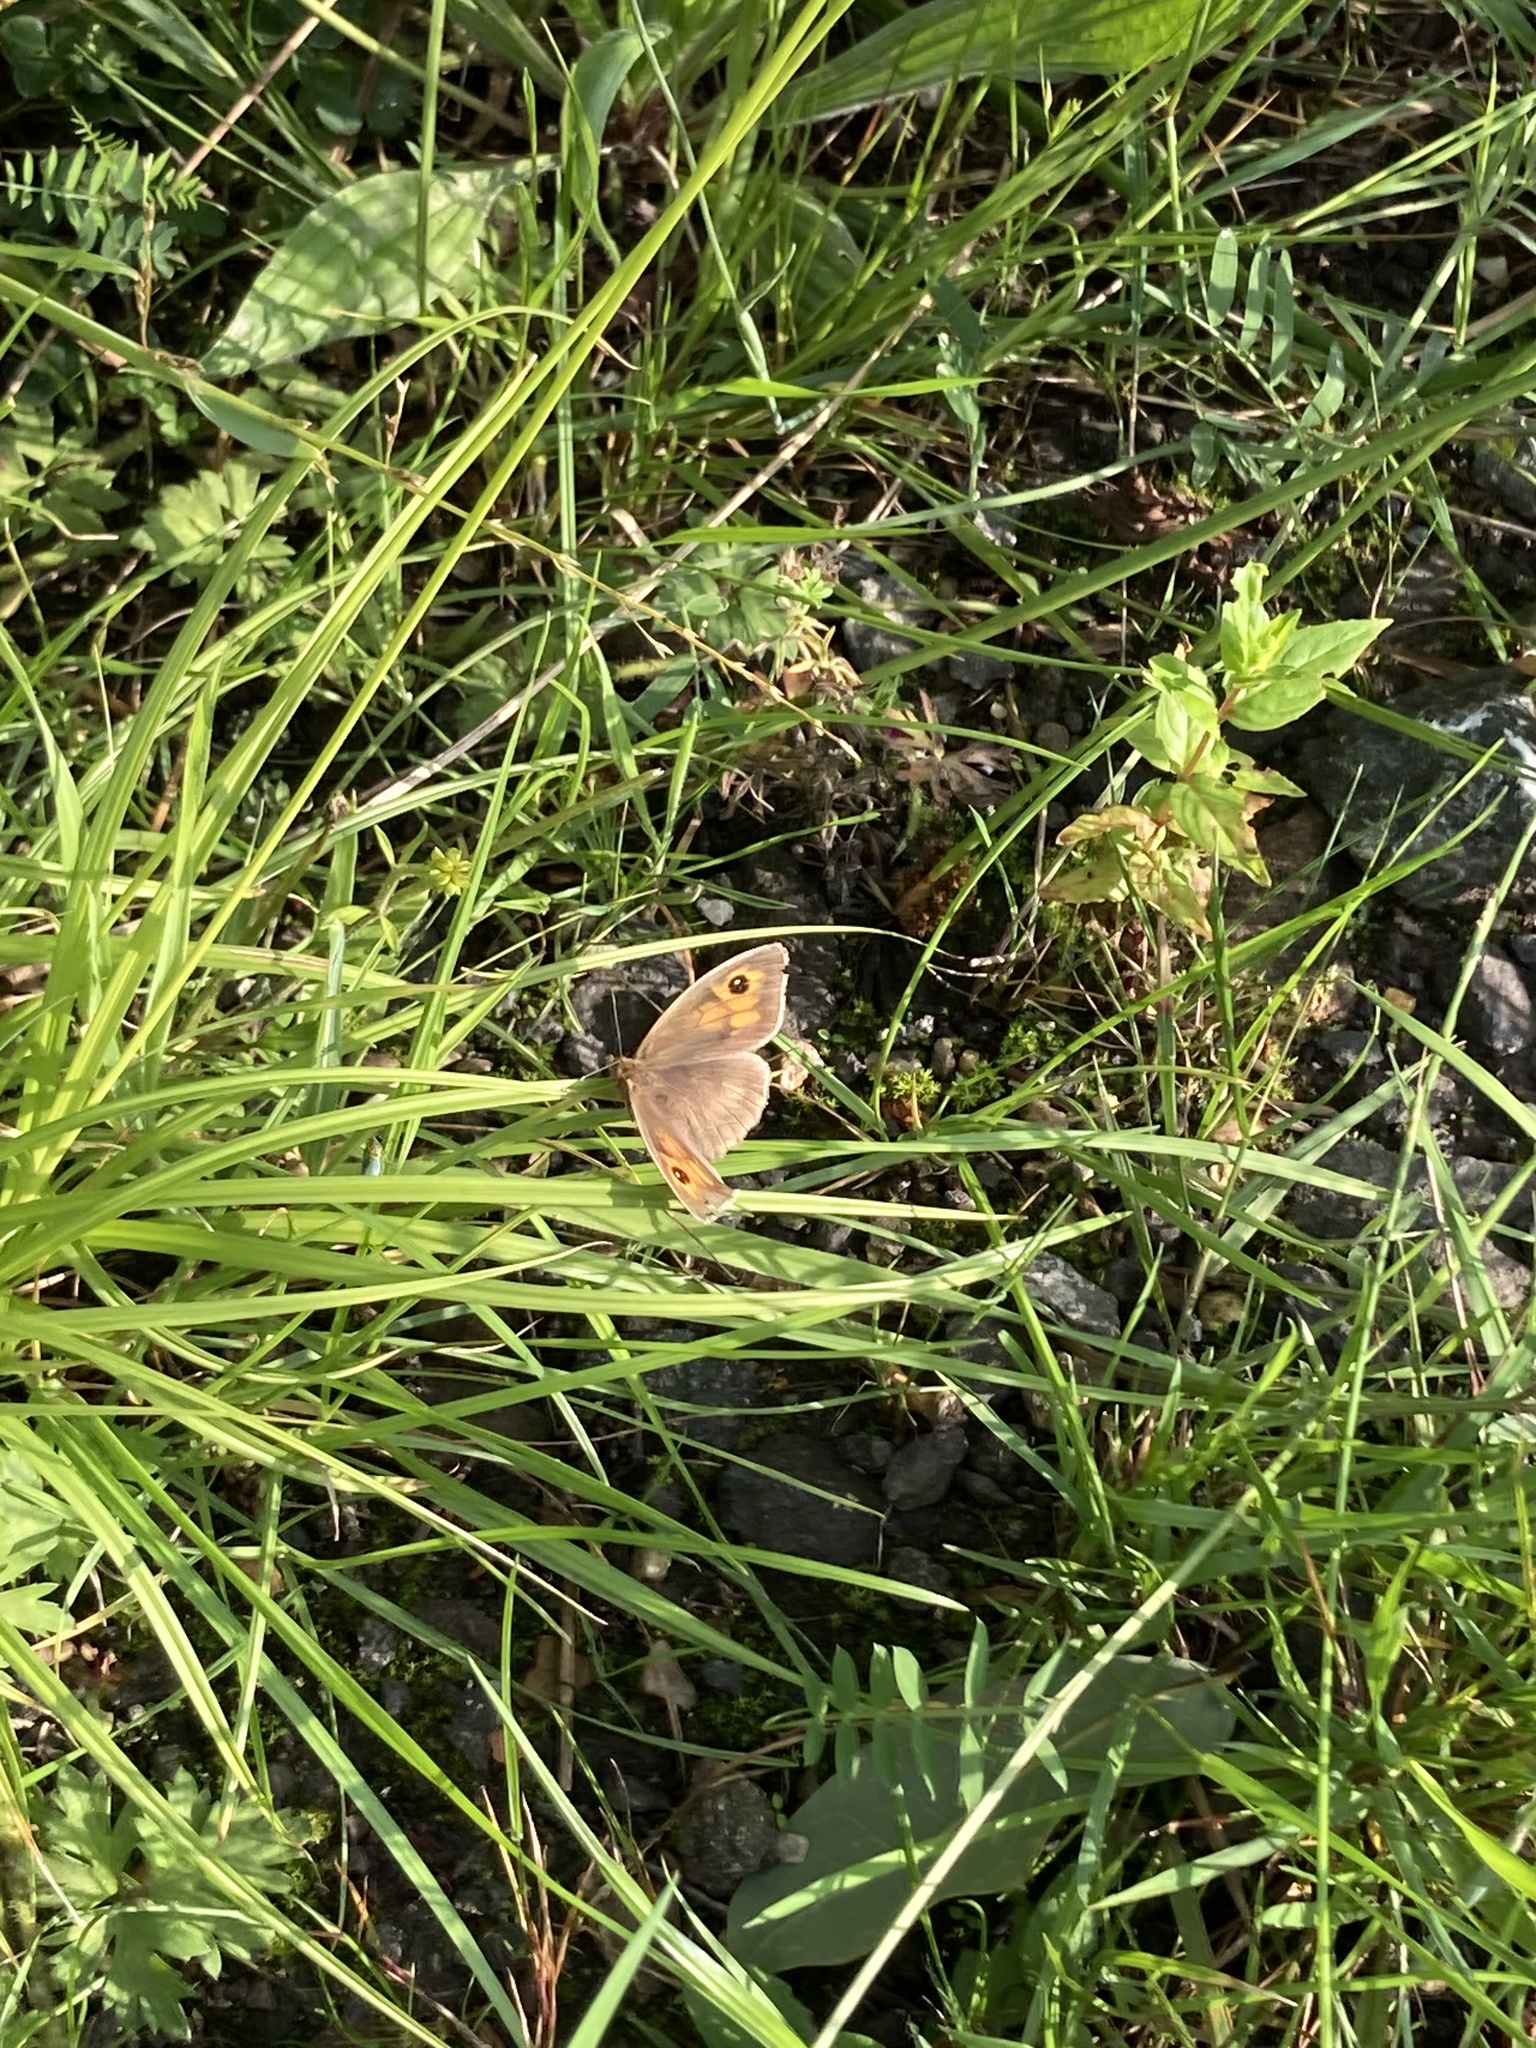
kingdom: Animalia
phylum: Arthropoda
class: Insecta
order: Lepidoptera
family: Nymphalidae
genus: Maniola
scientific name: Maniola jurtina
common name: Meadow brown
